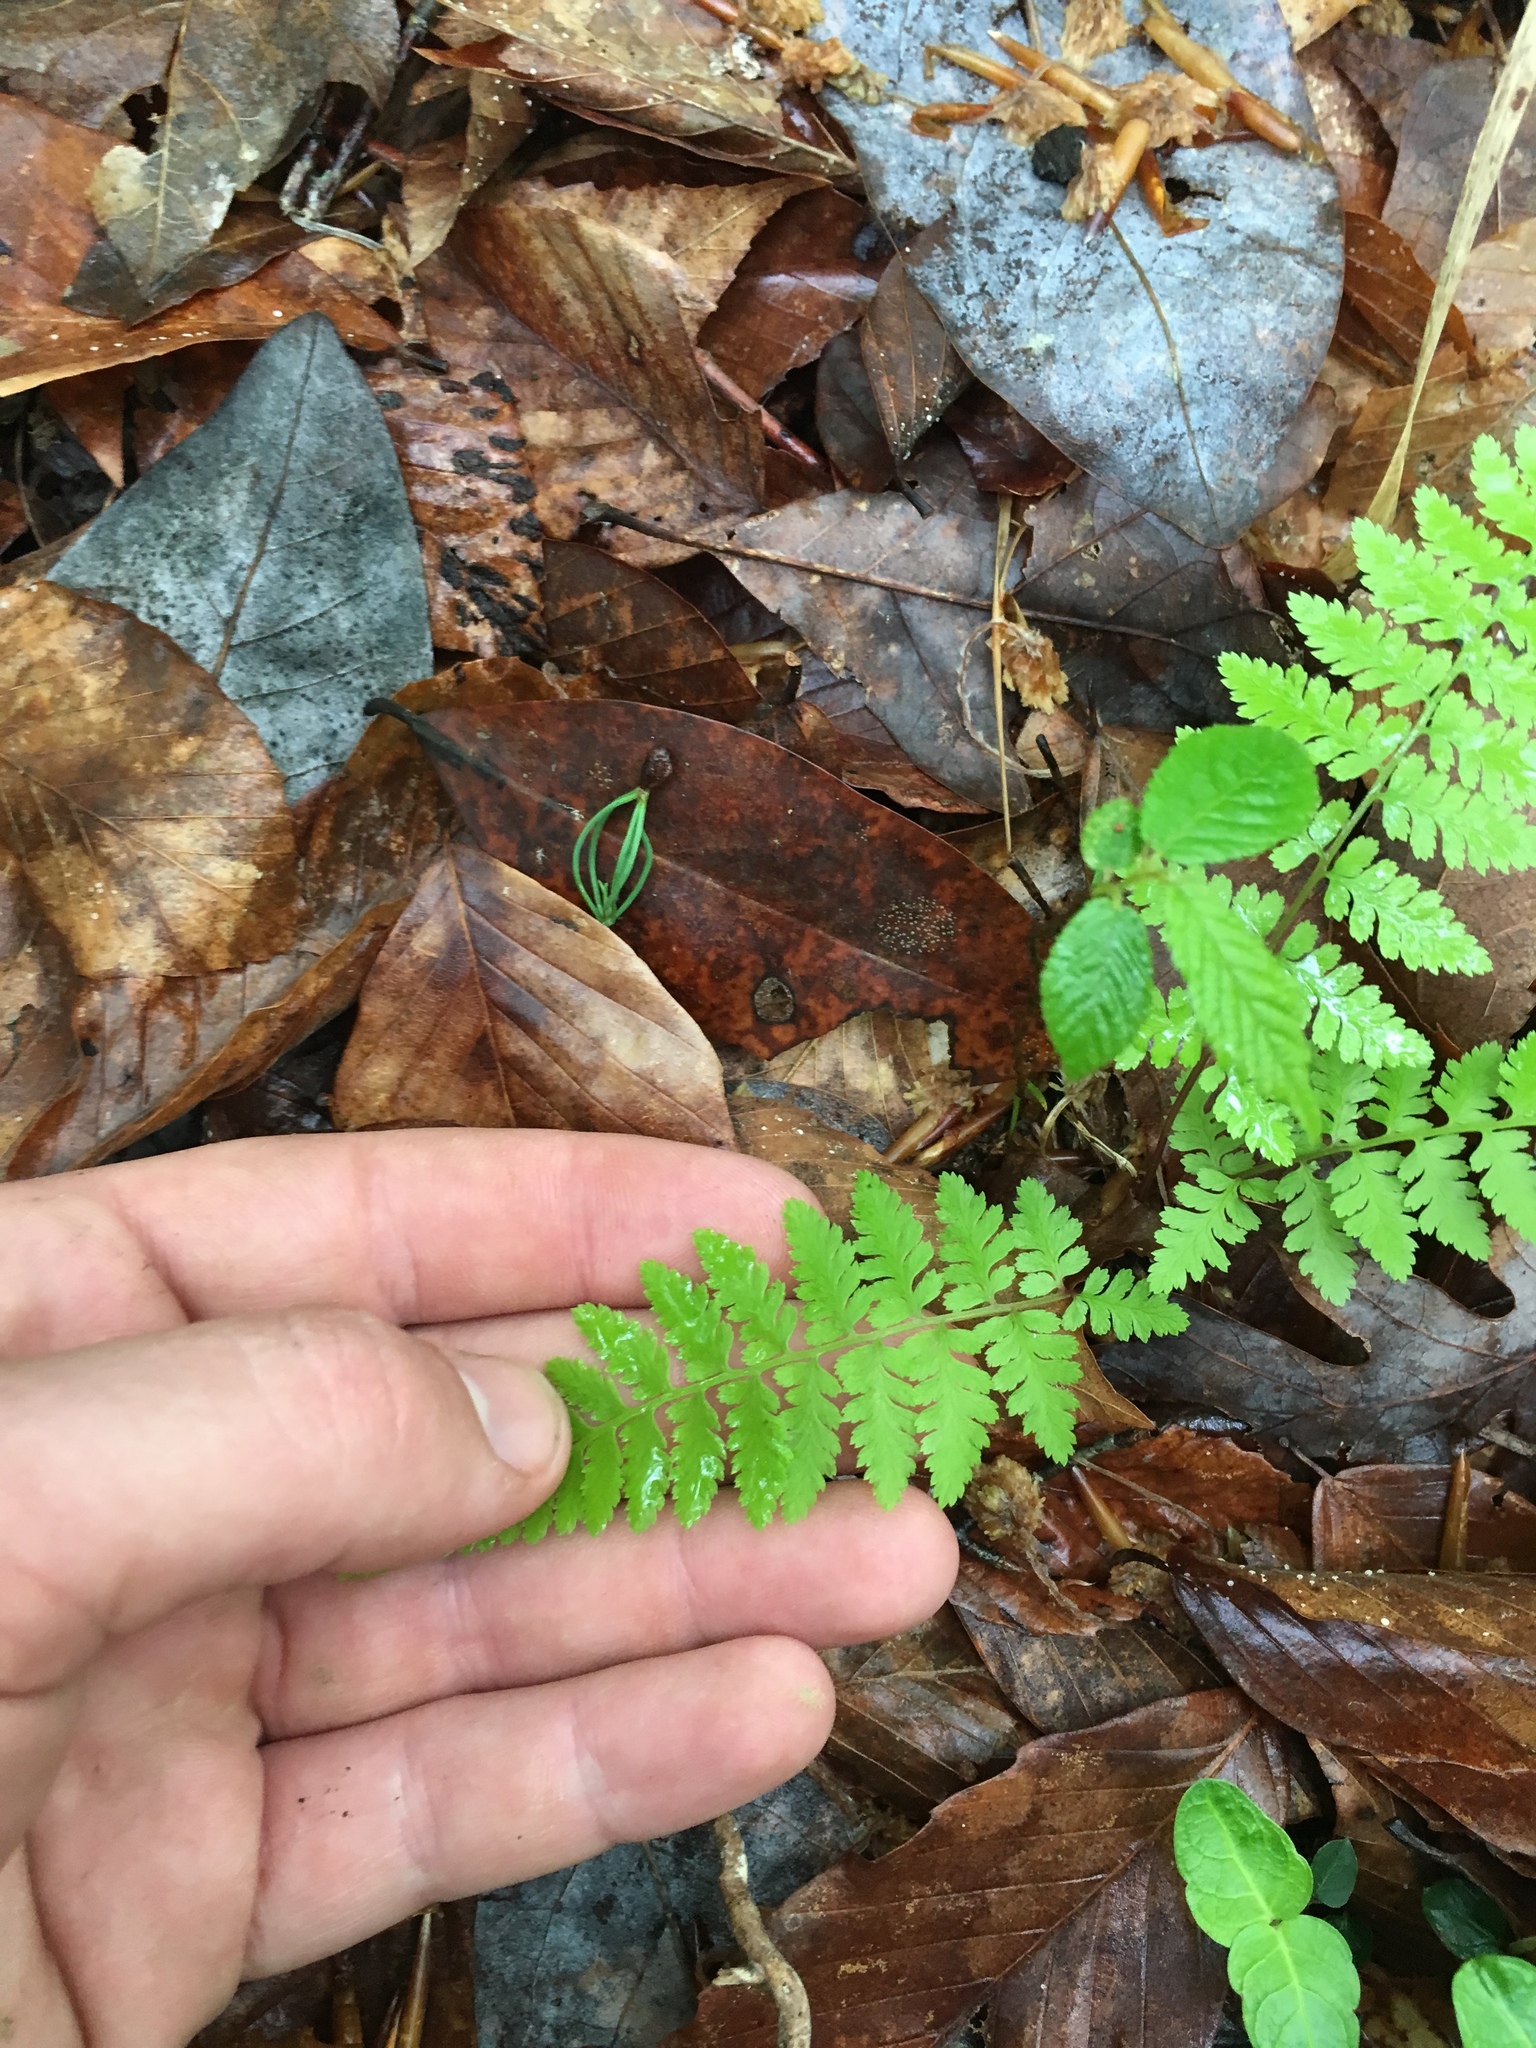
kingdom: Plantae
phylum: Tracheophyta
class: Polypodiopsida
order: Polypodiales
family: Athyriaceae
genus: Athyrium
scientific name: Athyrium asplenioides
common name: Southern lady fern
